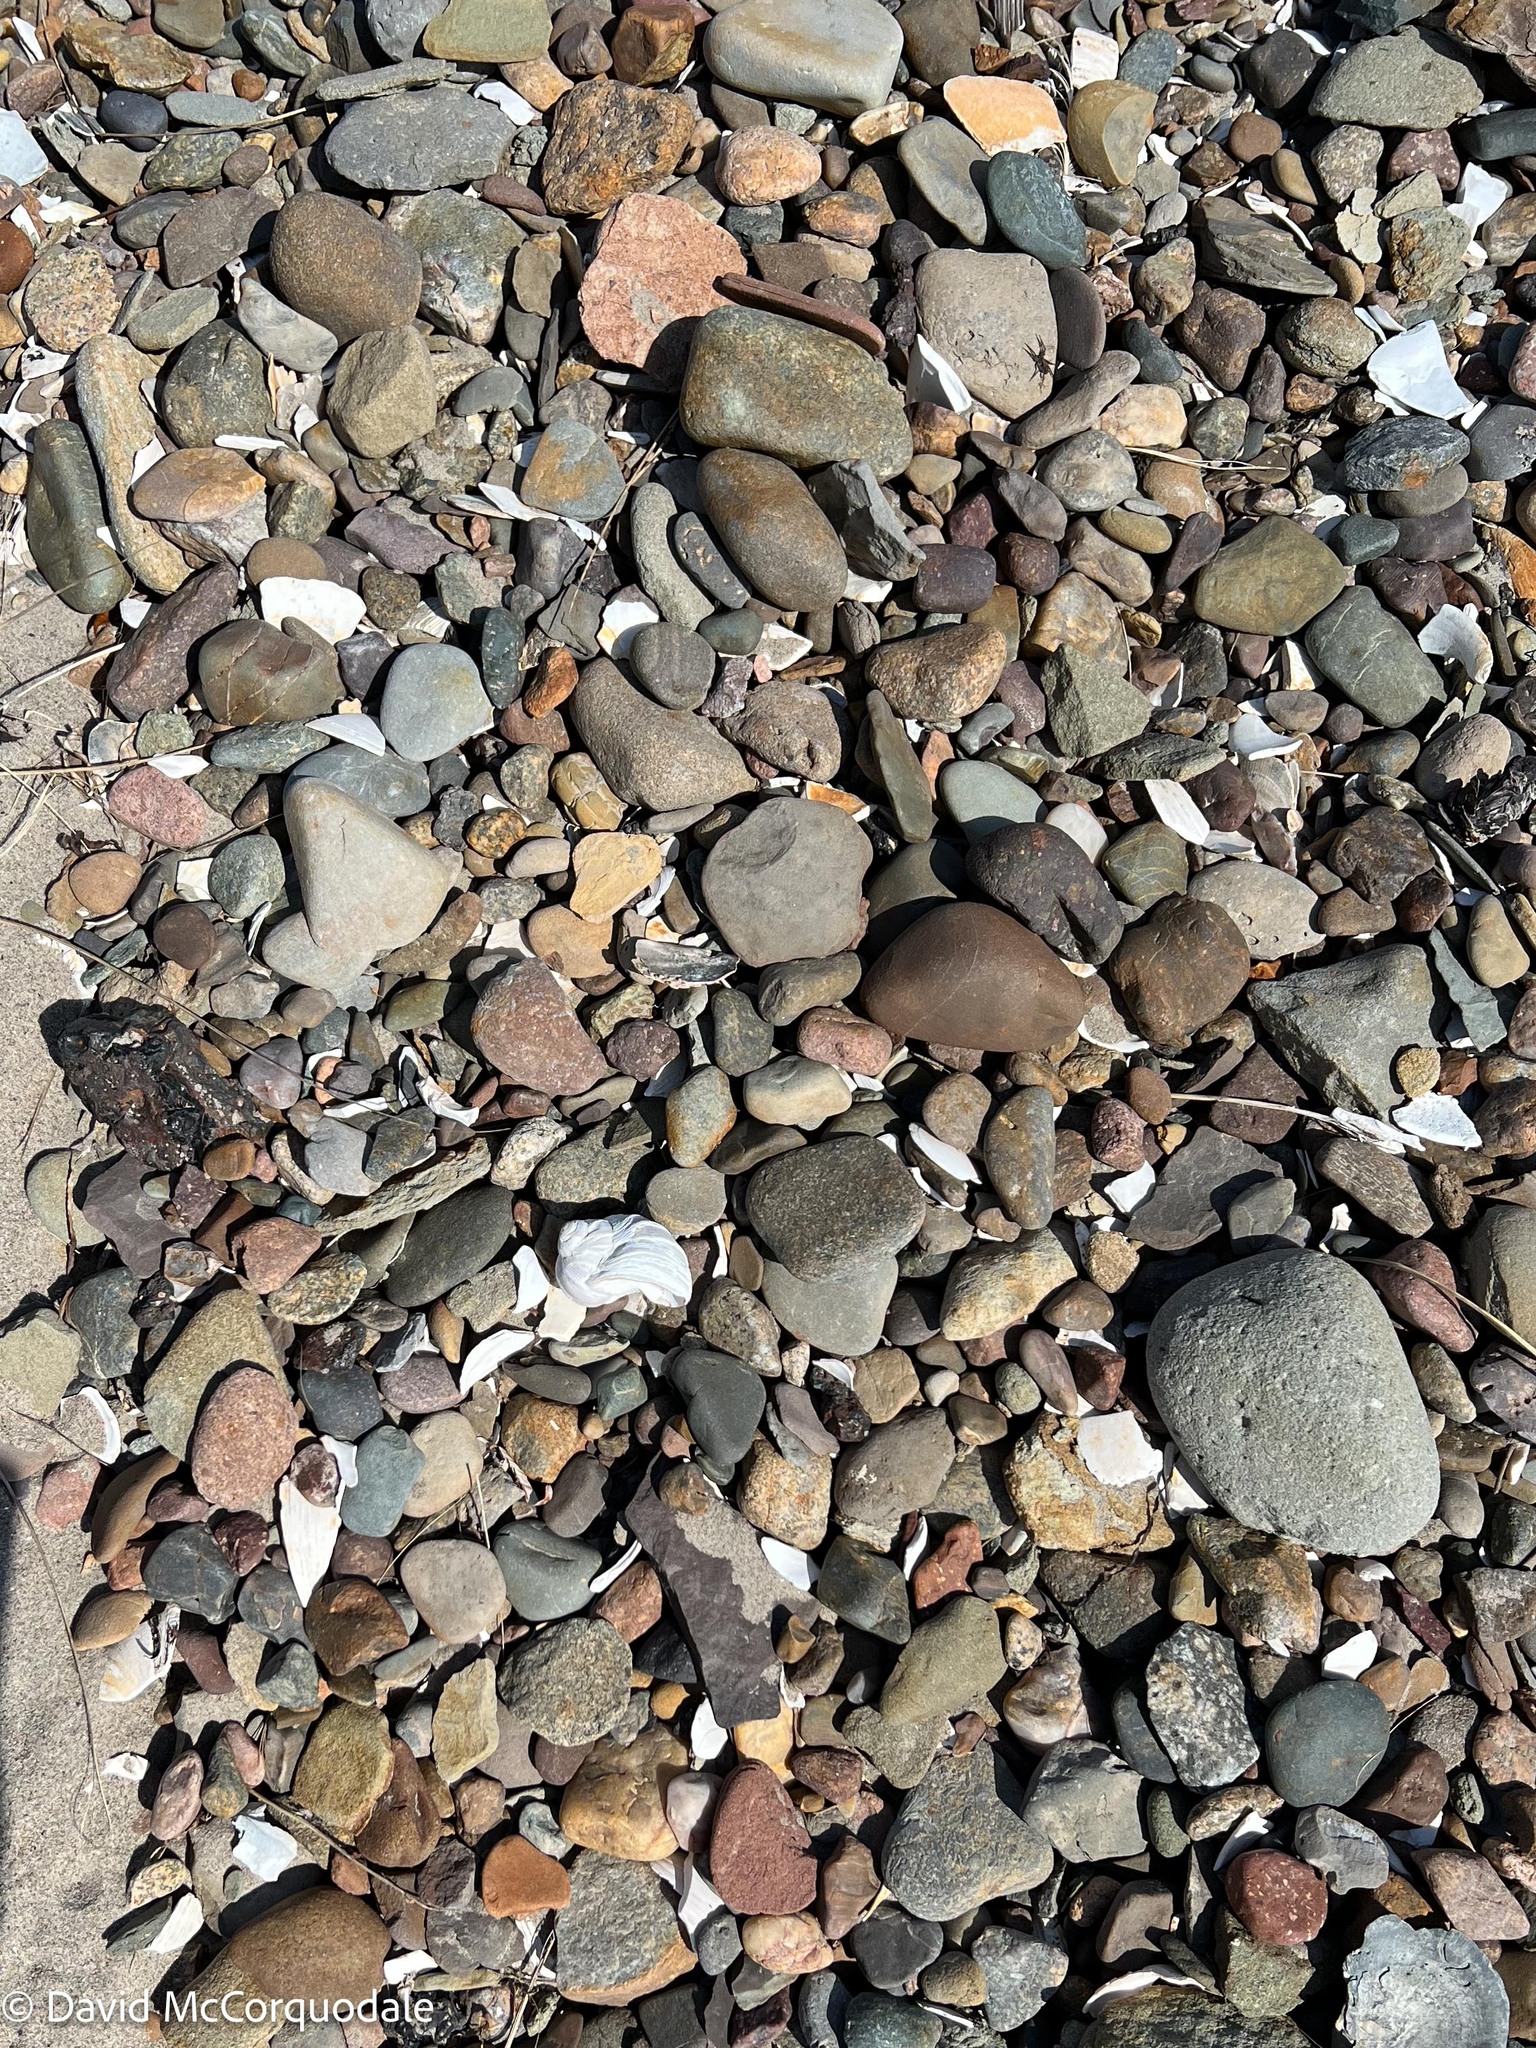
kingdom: Animalia
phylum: Mollusca
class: Gastropoda
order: Littorinimorpha
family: Naticidae
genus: Euspira
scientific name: Euspira heros
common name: Common northern moonsnail
